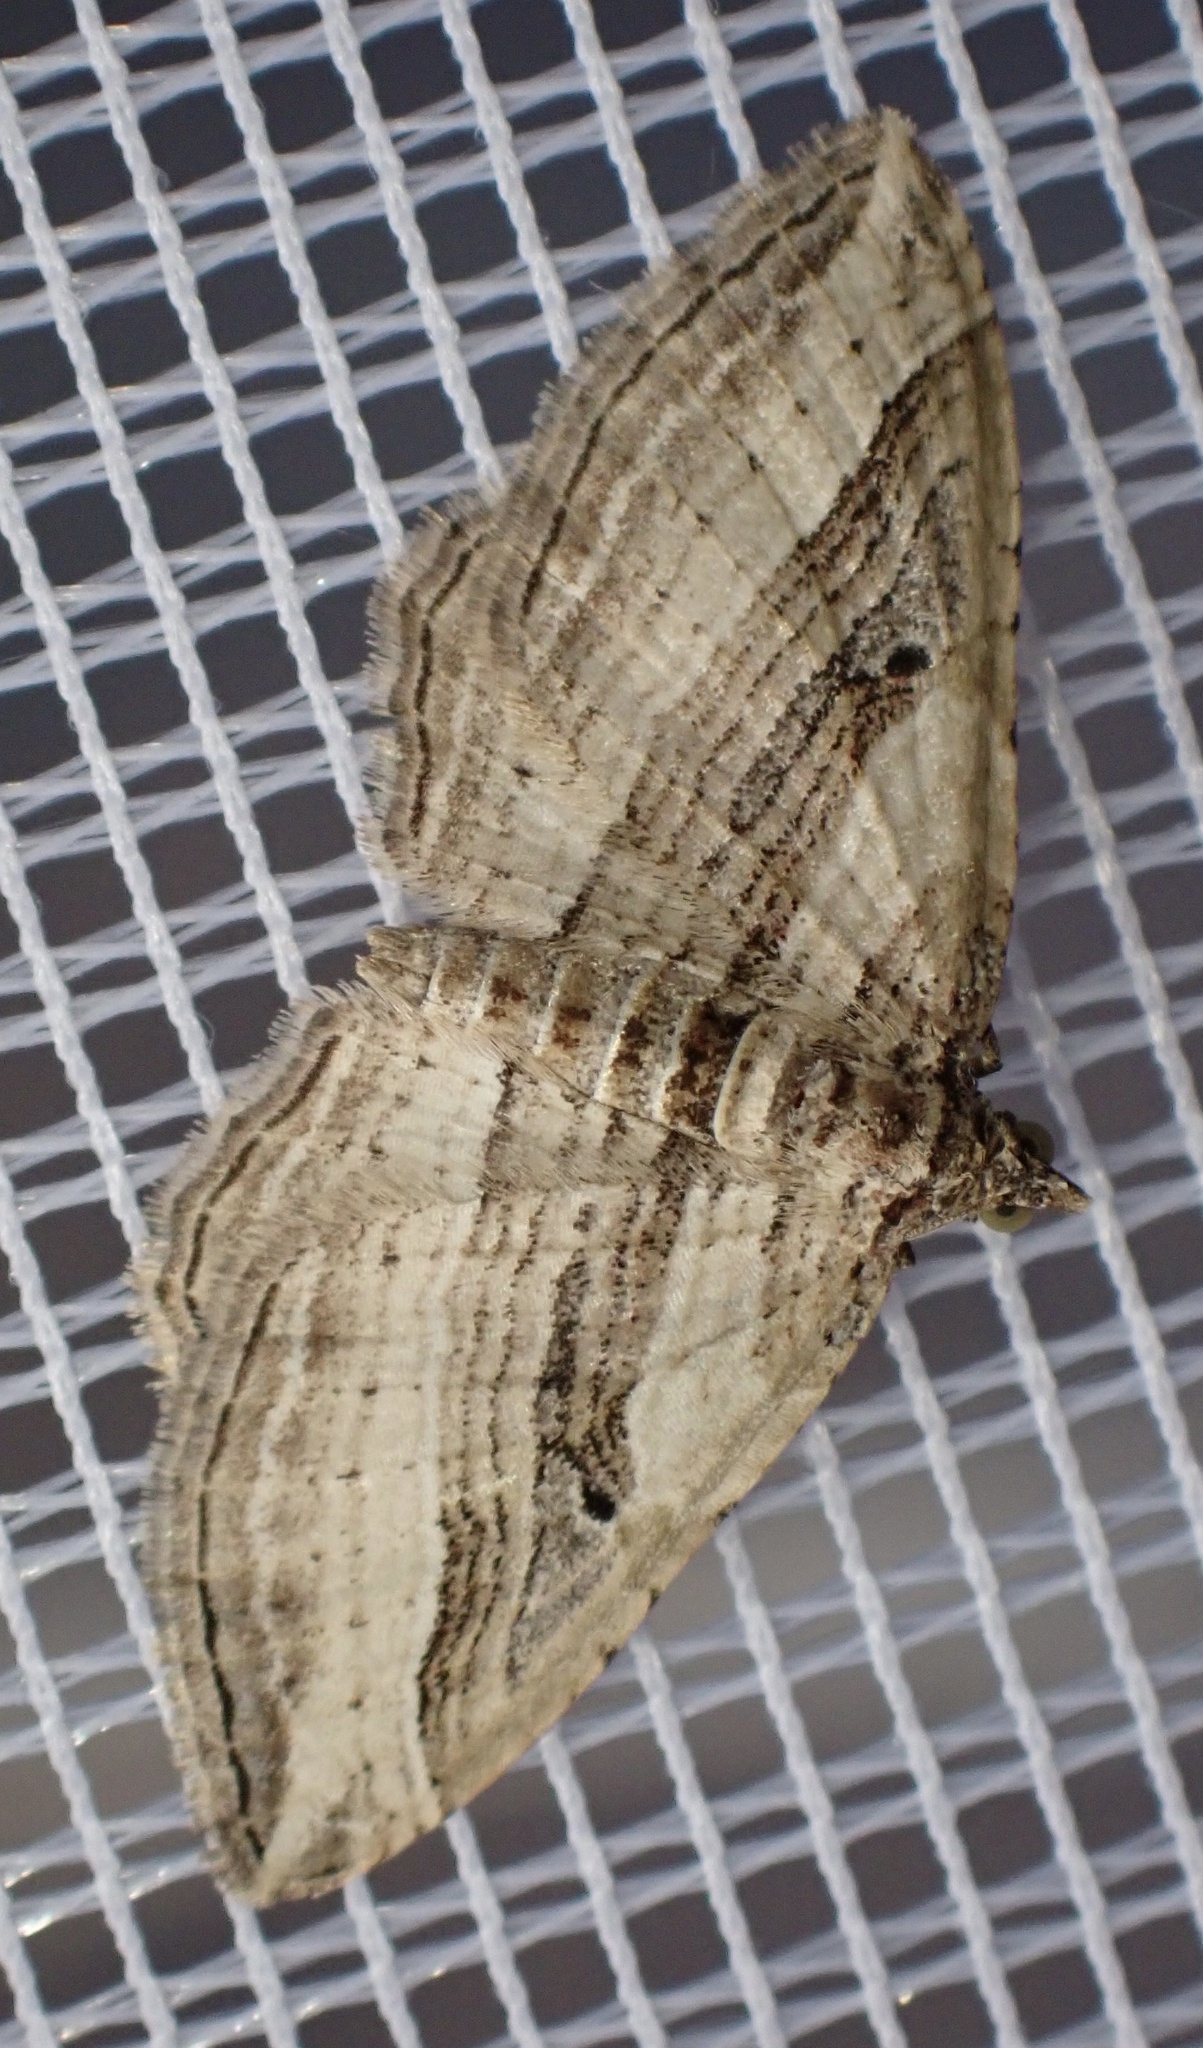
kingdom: Animalia
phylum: Arthropoda
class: Insecta
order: Lepidoptera
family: Geometridae
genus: Costaconvexa
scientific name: Costaconvexa polygrammata
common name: Many-lined
